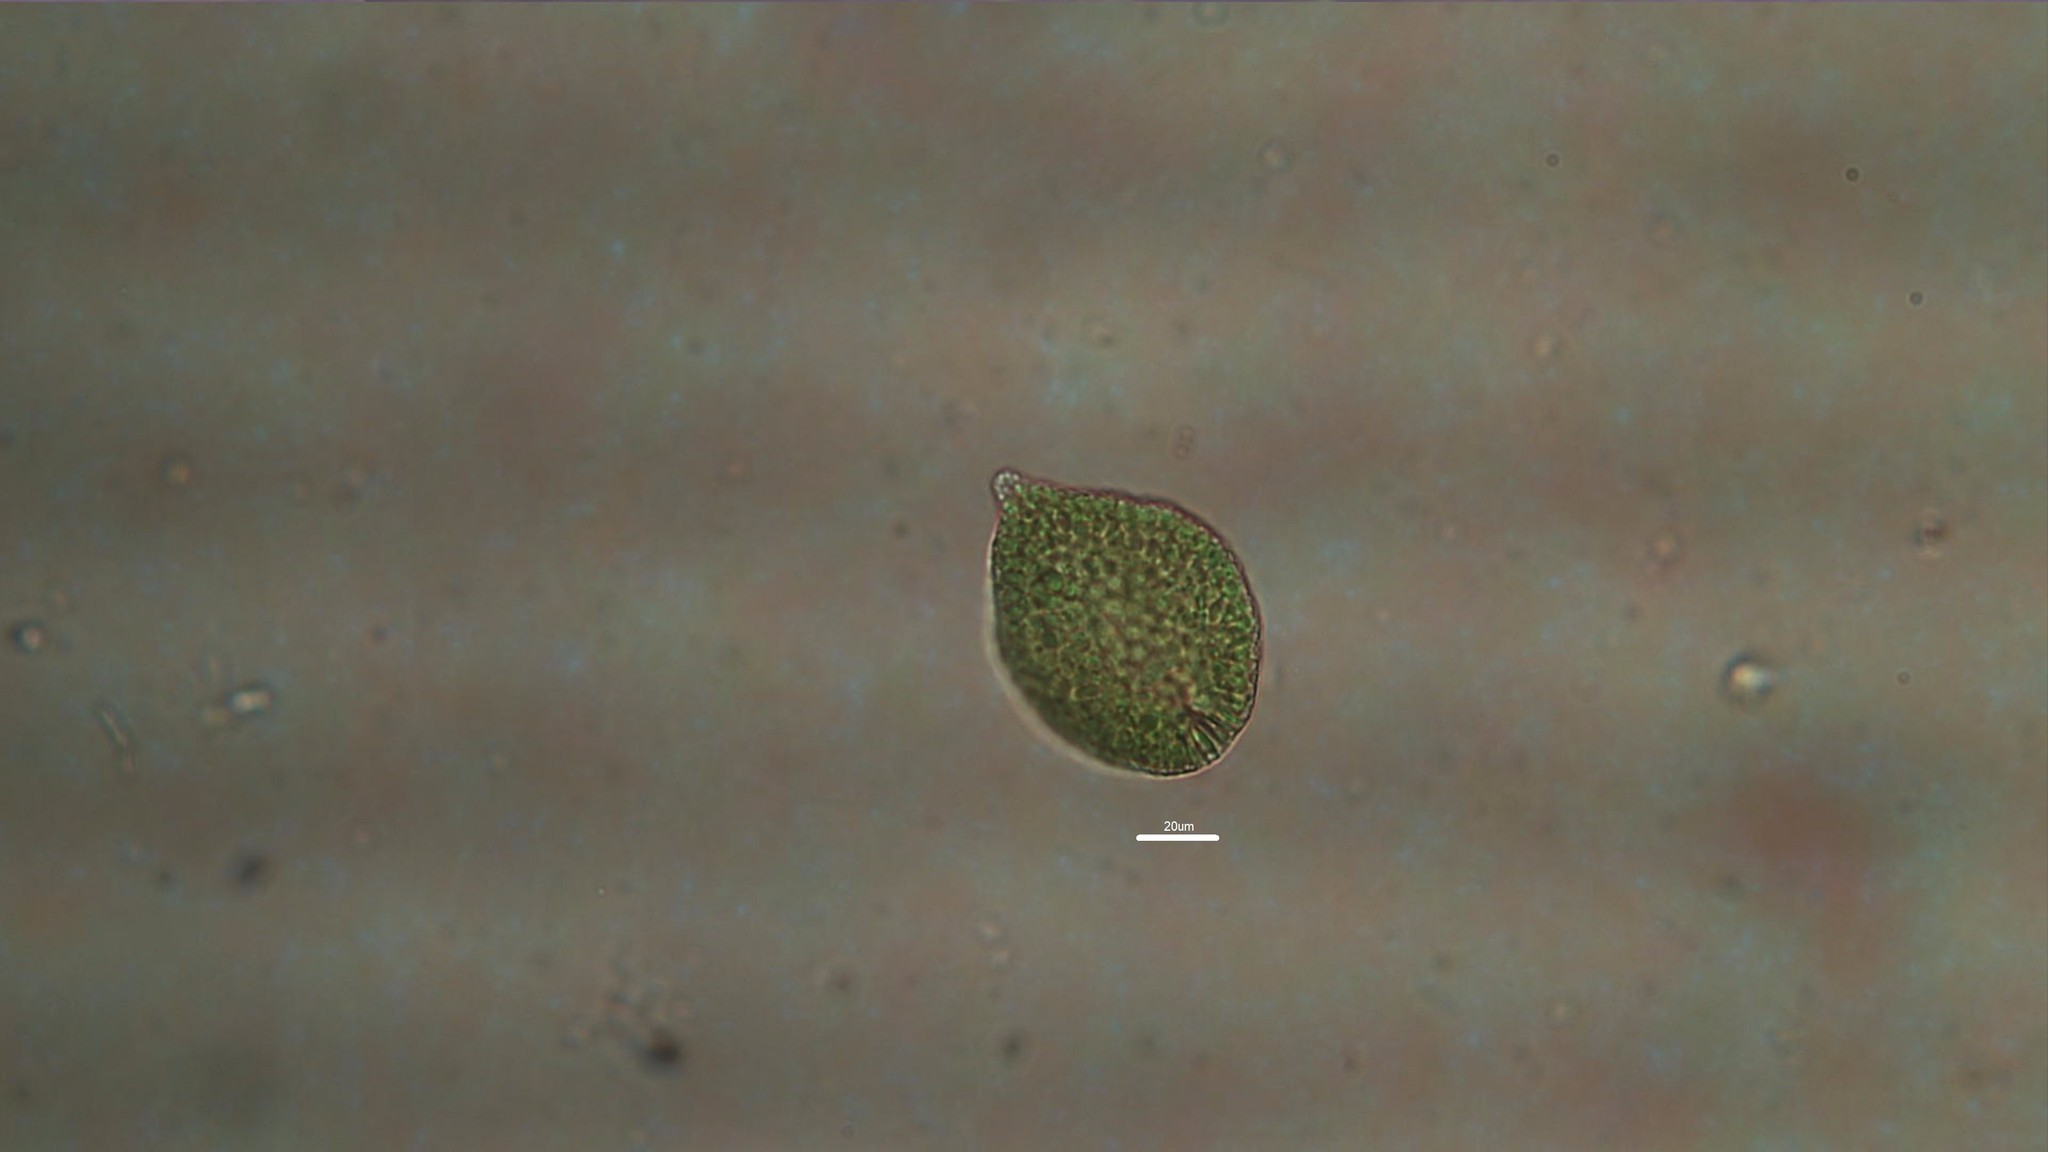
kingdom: Chromista
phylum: Ochrophyta
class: Raphidophyceae
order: Chattonellales
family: Vacuolariaceae
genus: Gonyostomum
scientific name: Gonyostomum semen
